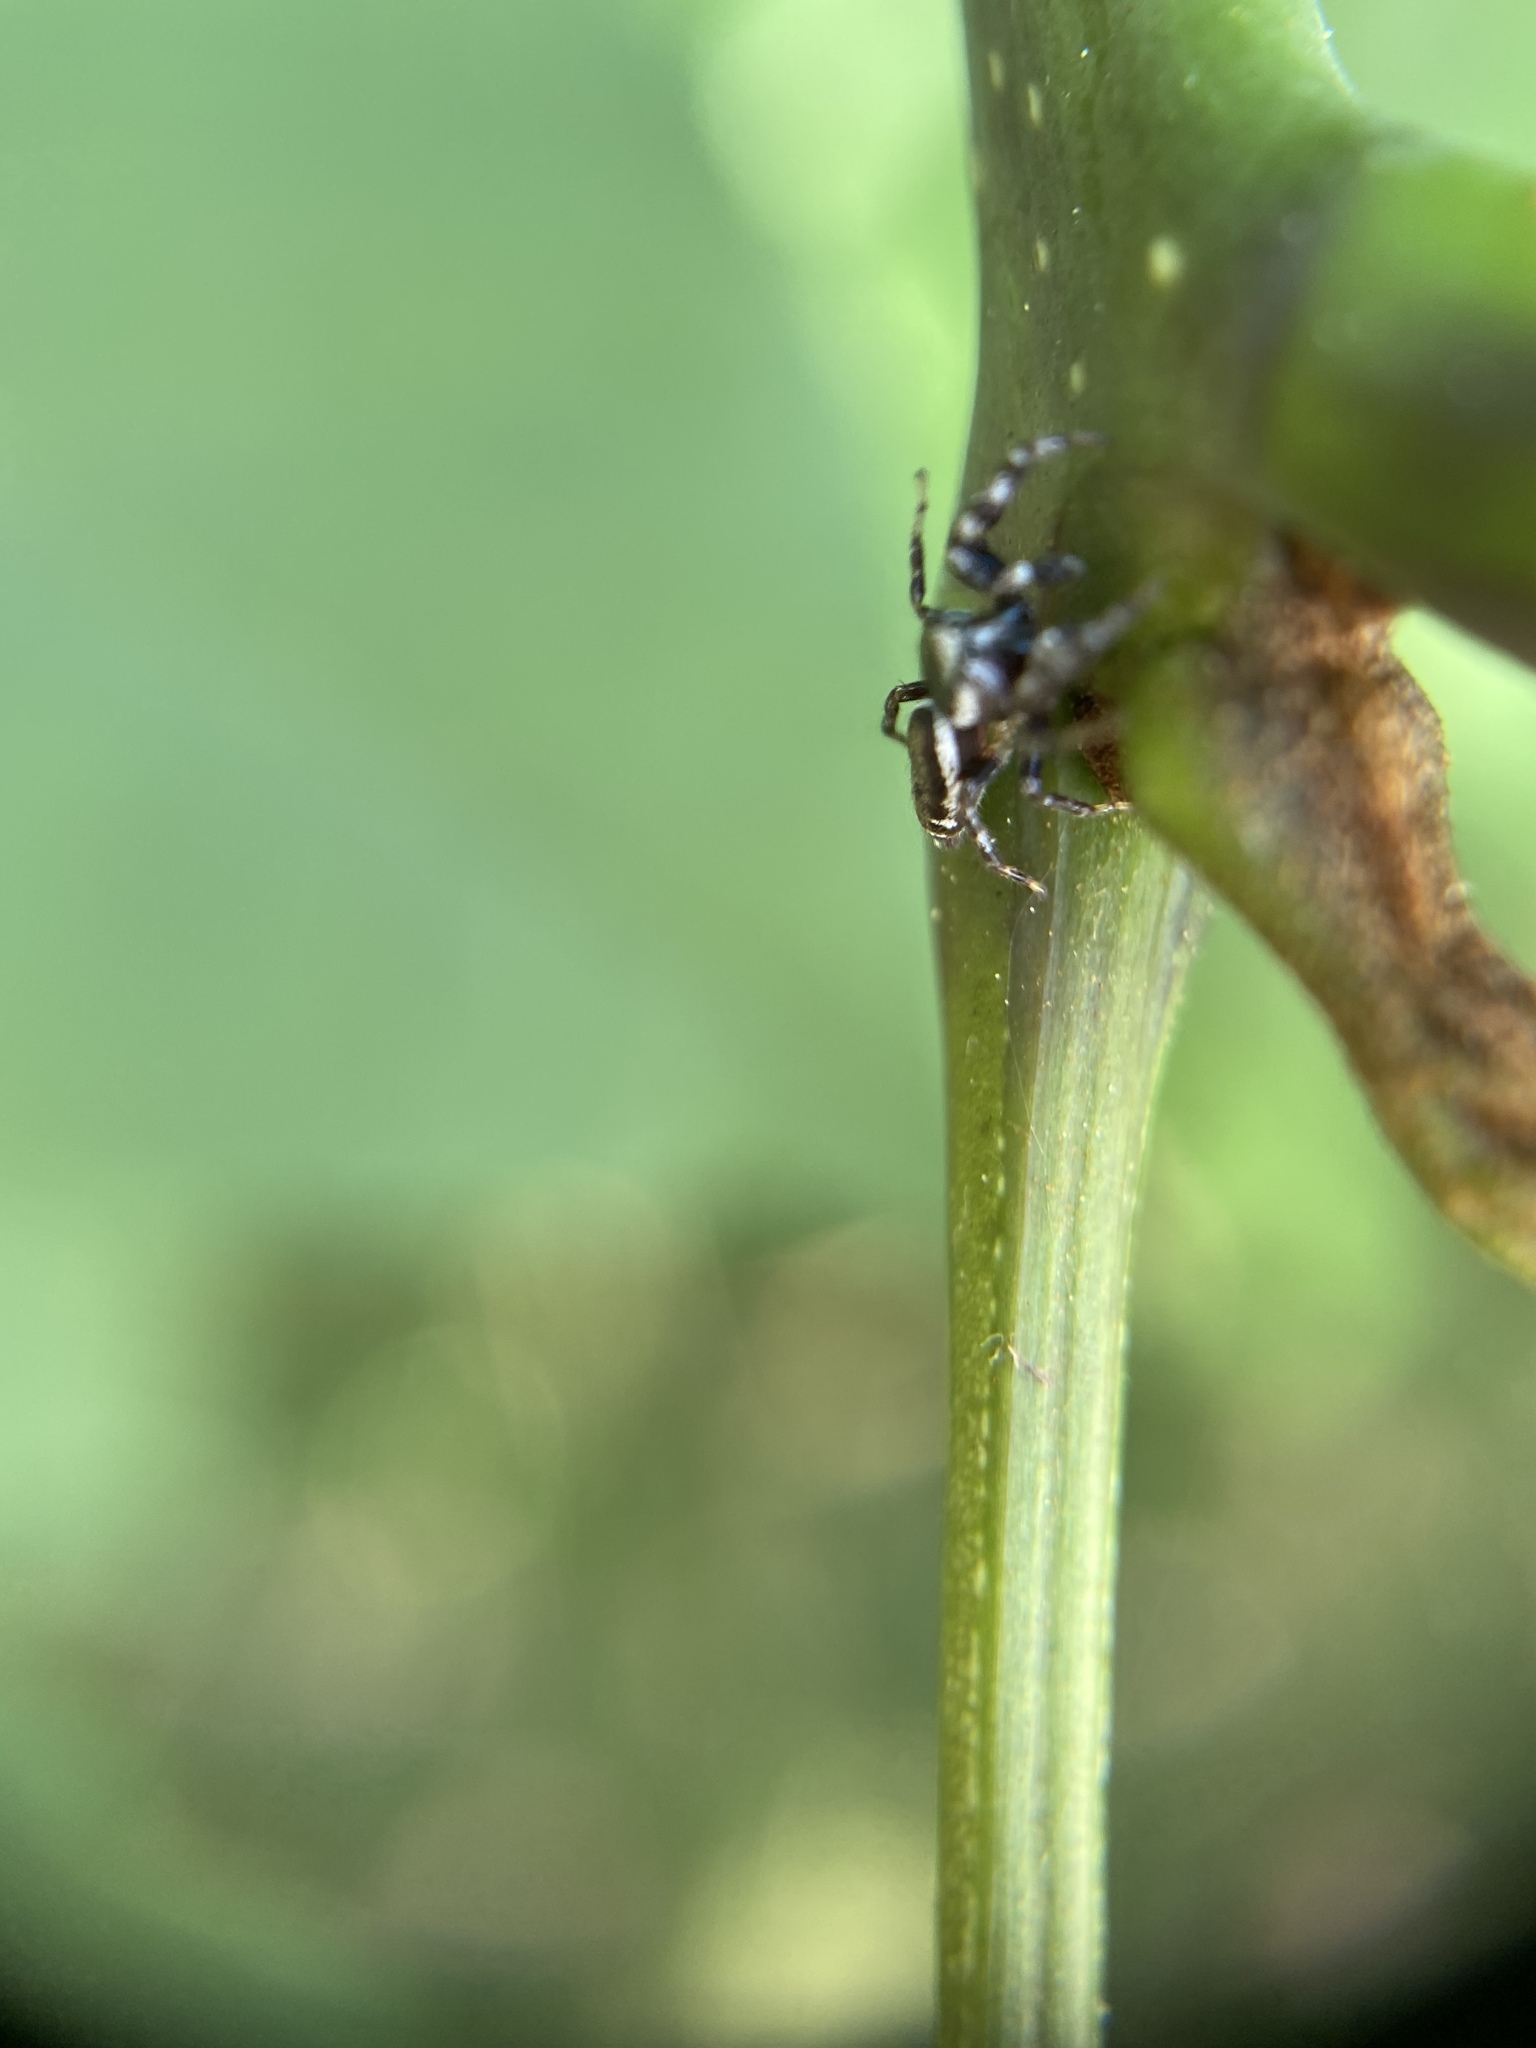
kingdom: Animalia
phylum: Arthropoda
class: Arachnida
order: Araneae
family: Salticidae
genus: Pelegrina
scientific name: Pelegrina proterva
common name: Common white-cheeked jumping spider
